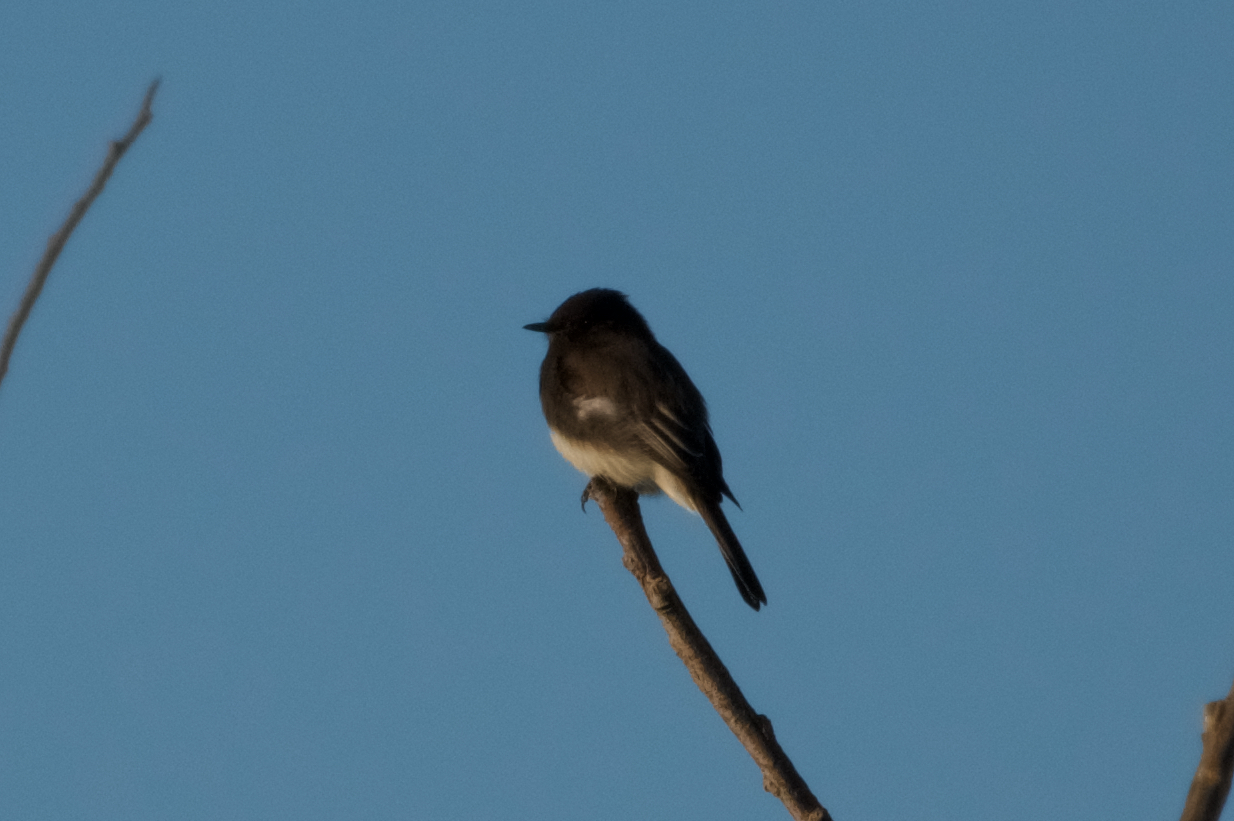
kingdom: Animalia
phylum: Chordata
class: Aves
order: Passeriformes
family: Tyrannidae
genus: Sayornis
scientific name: Sayornis nigricans
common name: Black phoebe
